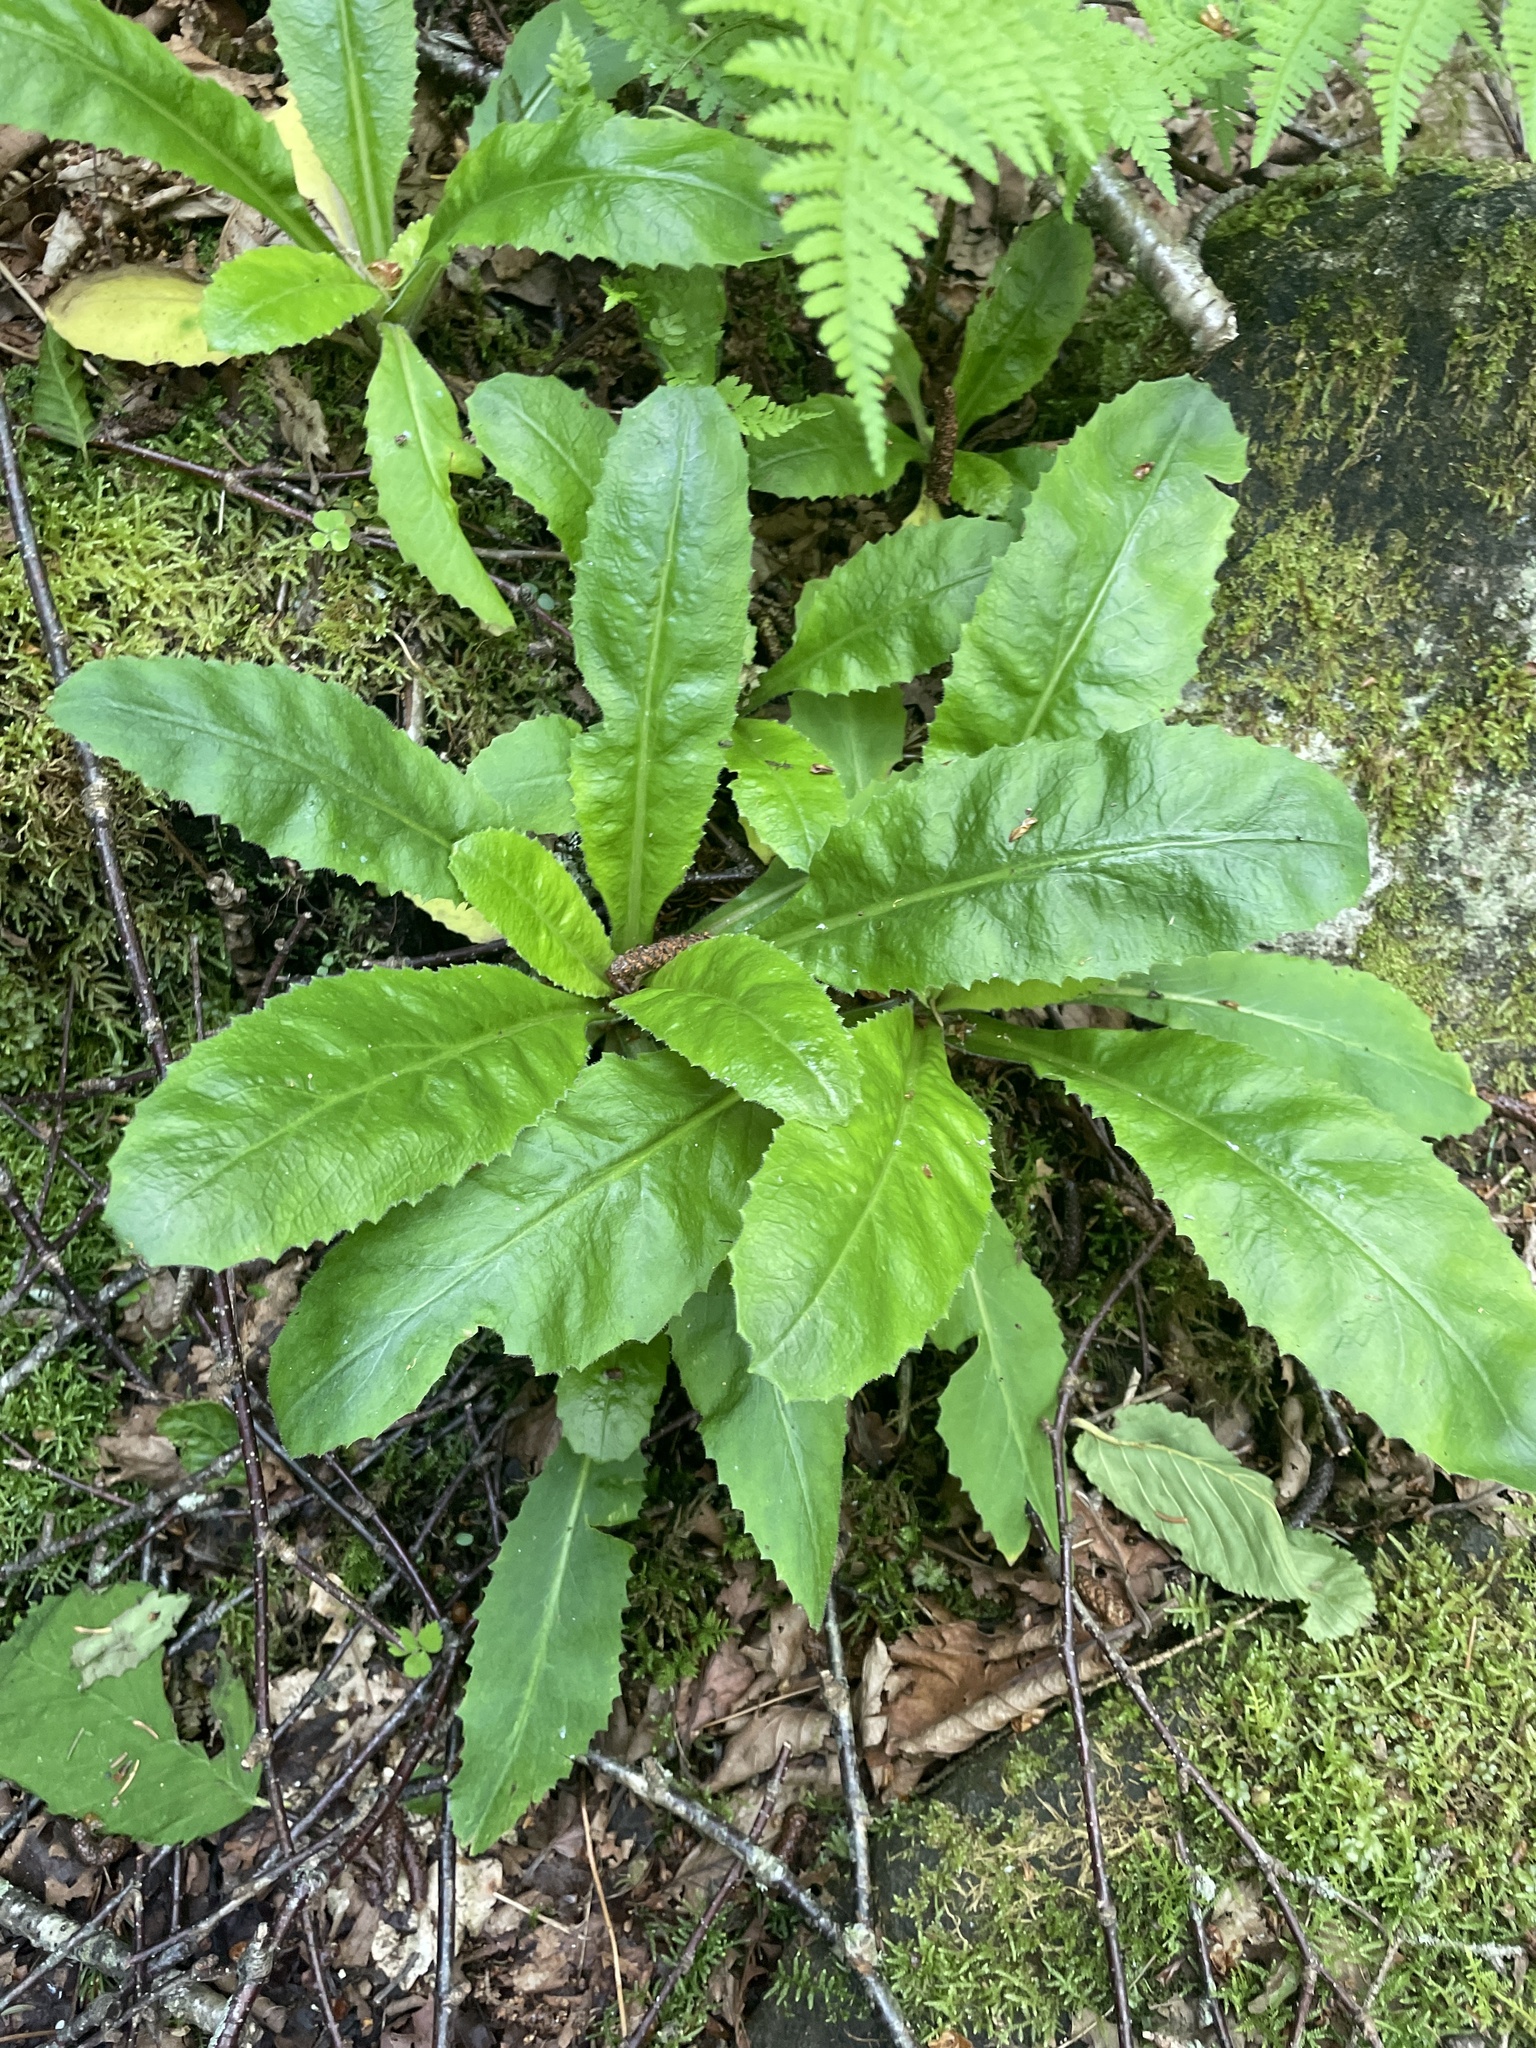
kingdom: Plantae
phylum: Tracheophyta
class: Magnoliopsida
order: Saxifragales
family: Saxifragaceae
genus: Micranthes
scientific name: Micranthes micranthidifolia
